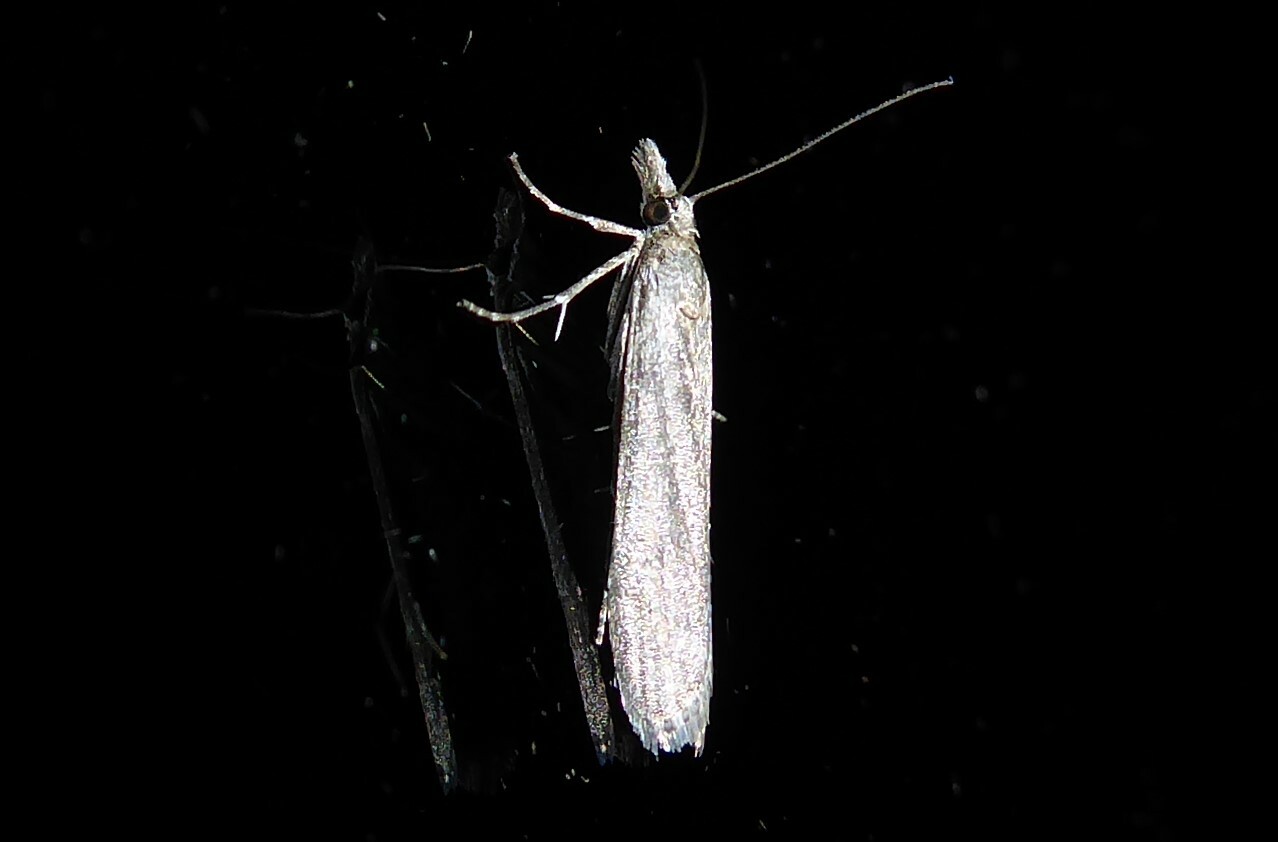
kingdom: Animalia
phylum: Arthropoda
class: Insecta
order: Lepidoptera
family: Crambidae
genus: Eudonia
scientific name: Eudonia leptalea
